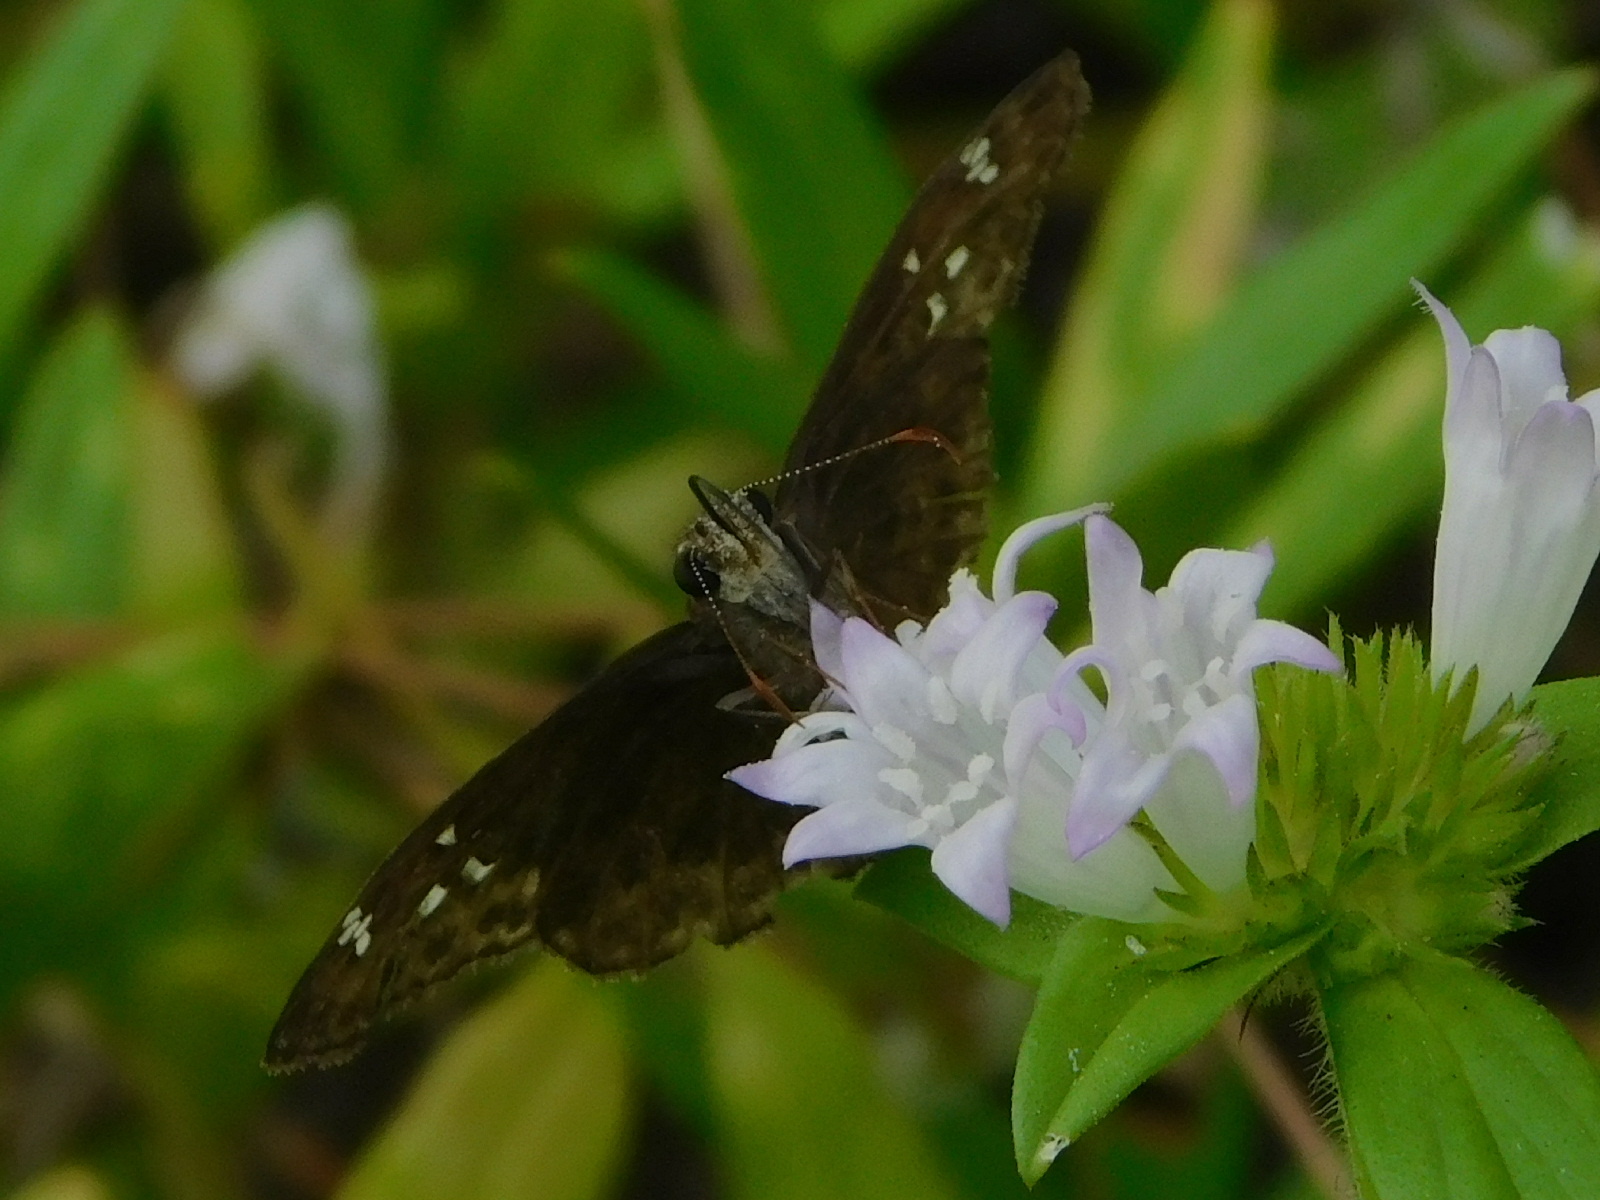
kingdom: Plantae
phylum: Tracheophyta
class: Magnoliopsida
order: Gentianales
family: Rubiaceae
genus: Richardia
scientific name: Richardia grandiflora
